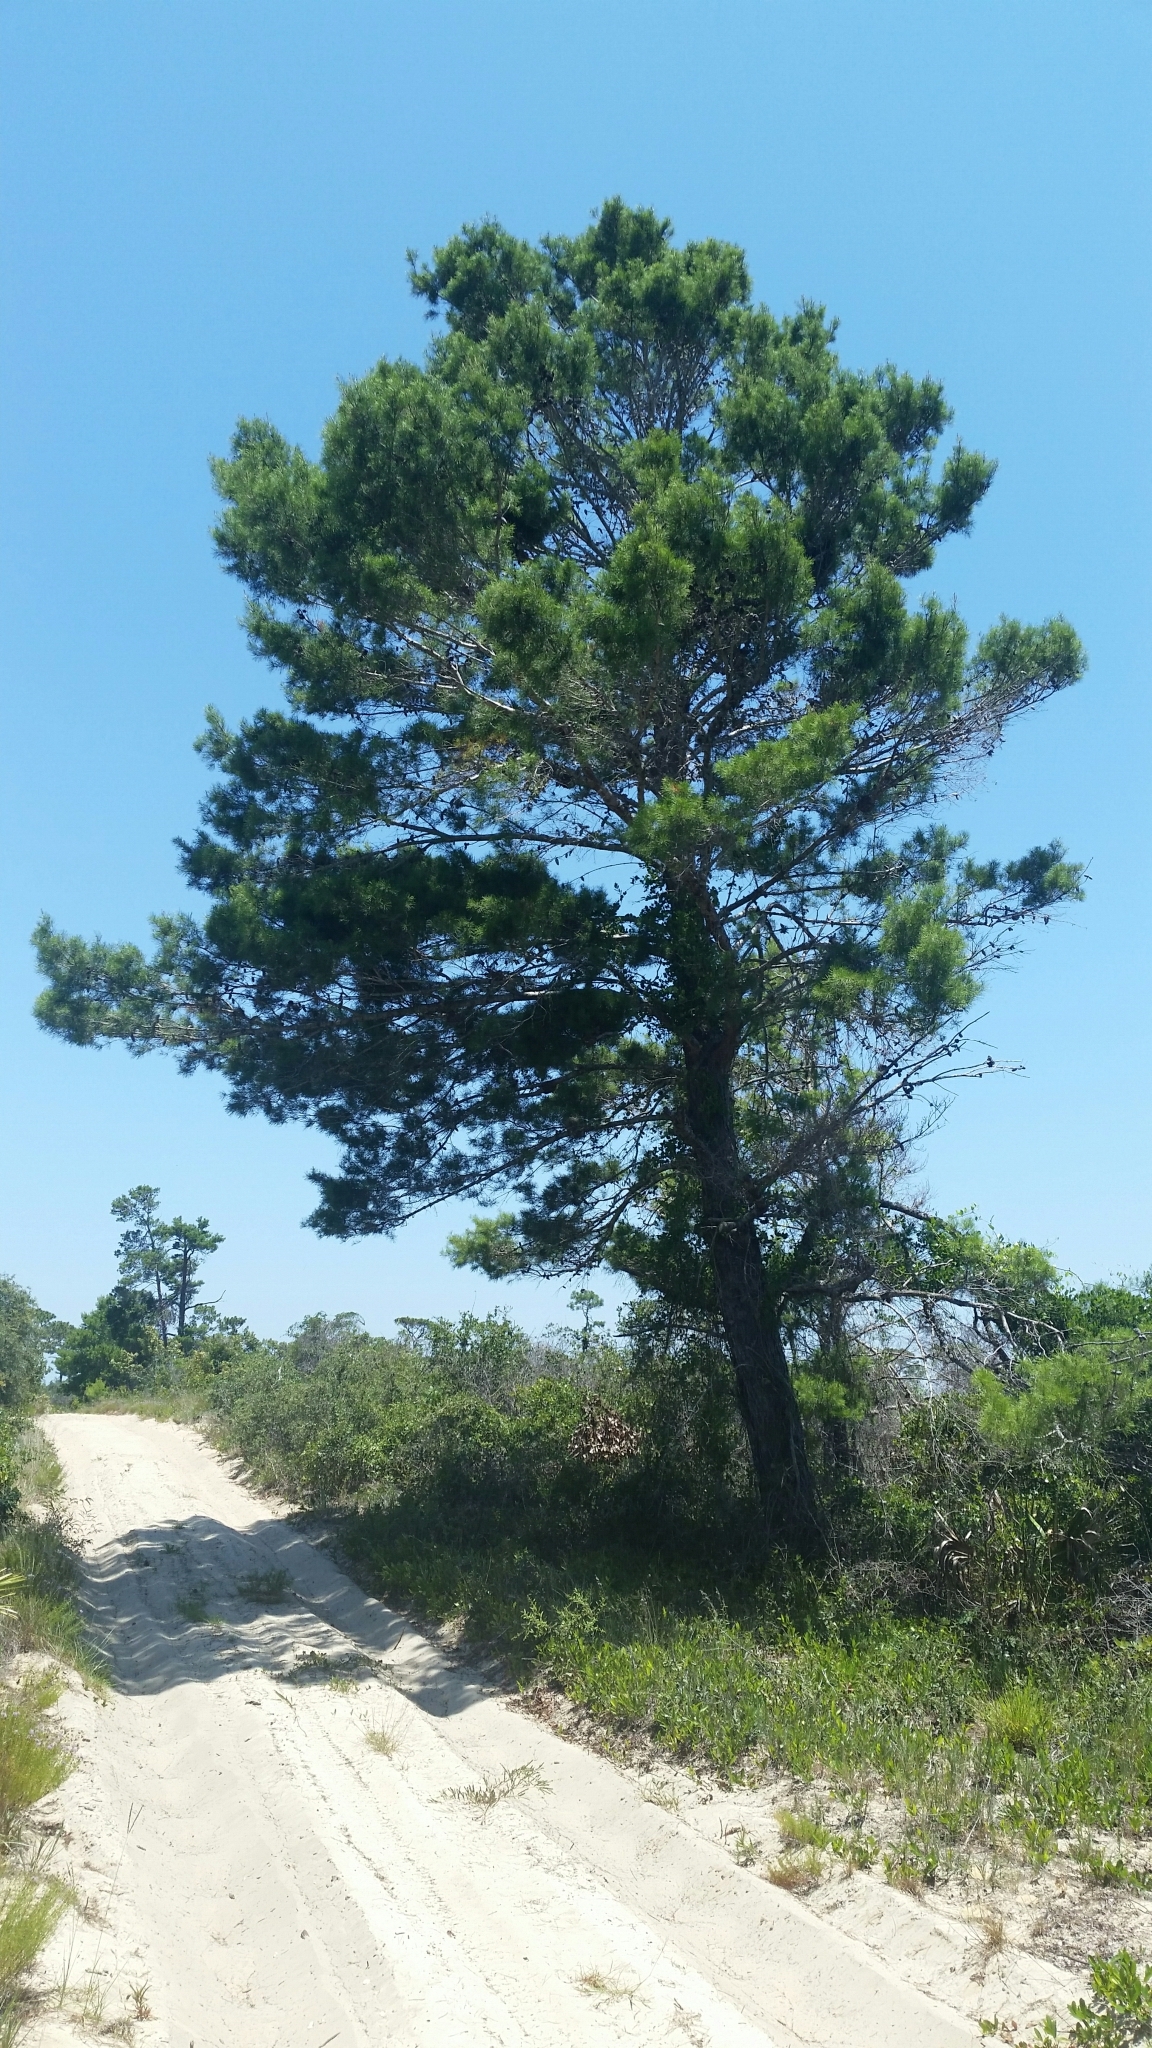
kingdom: Plantae
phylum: Tracheophyta
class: Pinopsida
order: Pinales
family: Pinaceae
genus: Pinus
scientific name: Pinus clausa
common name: Sand pine
